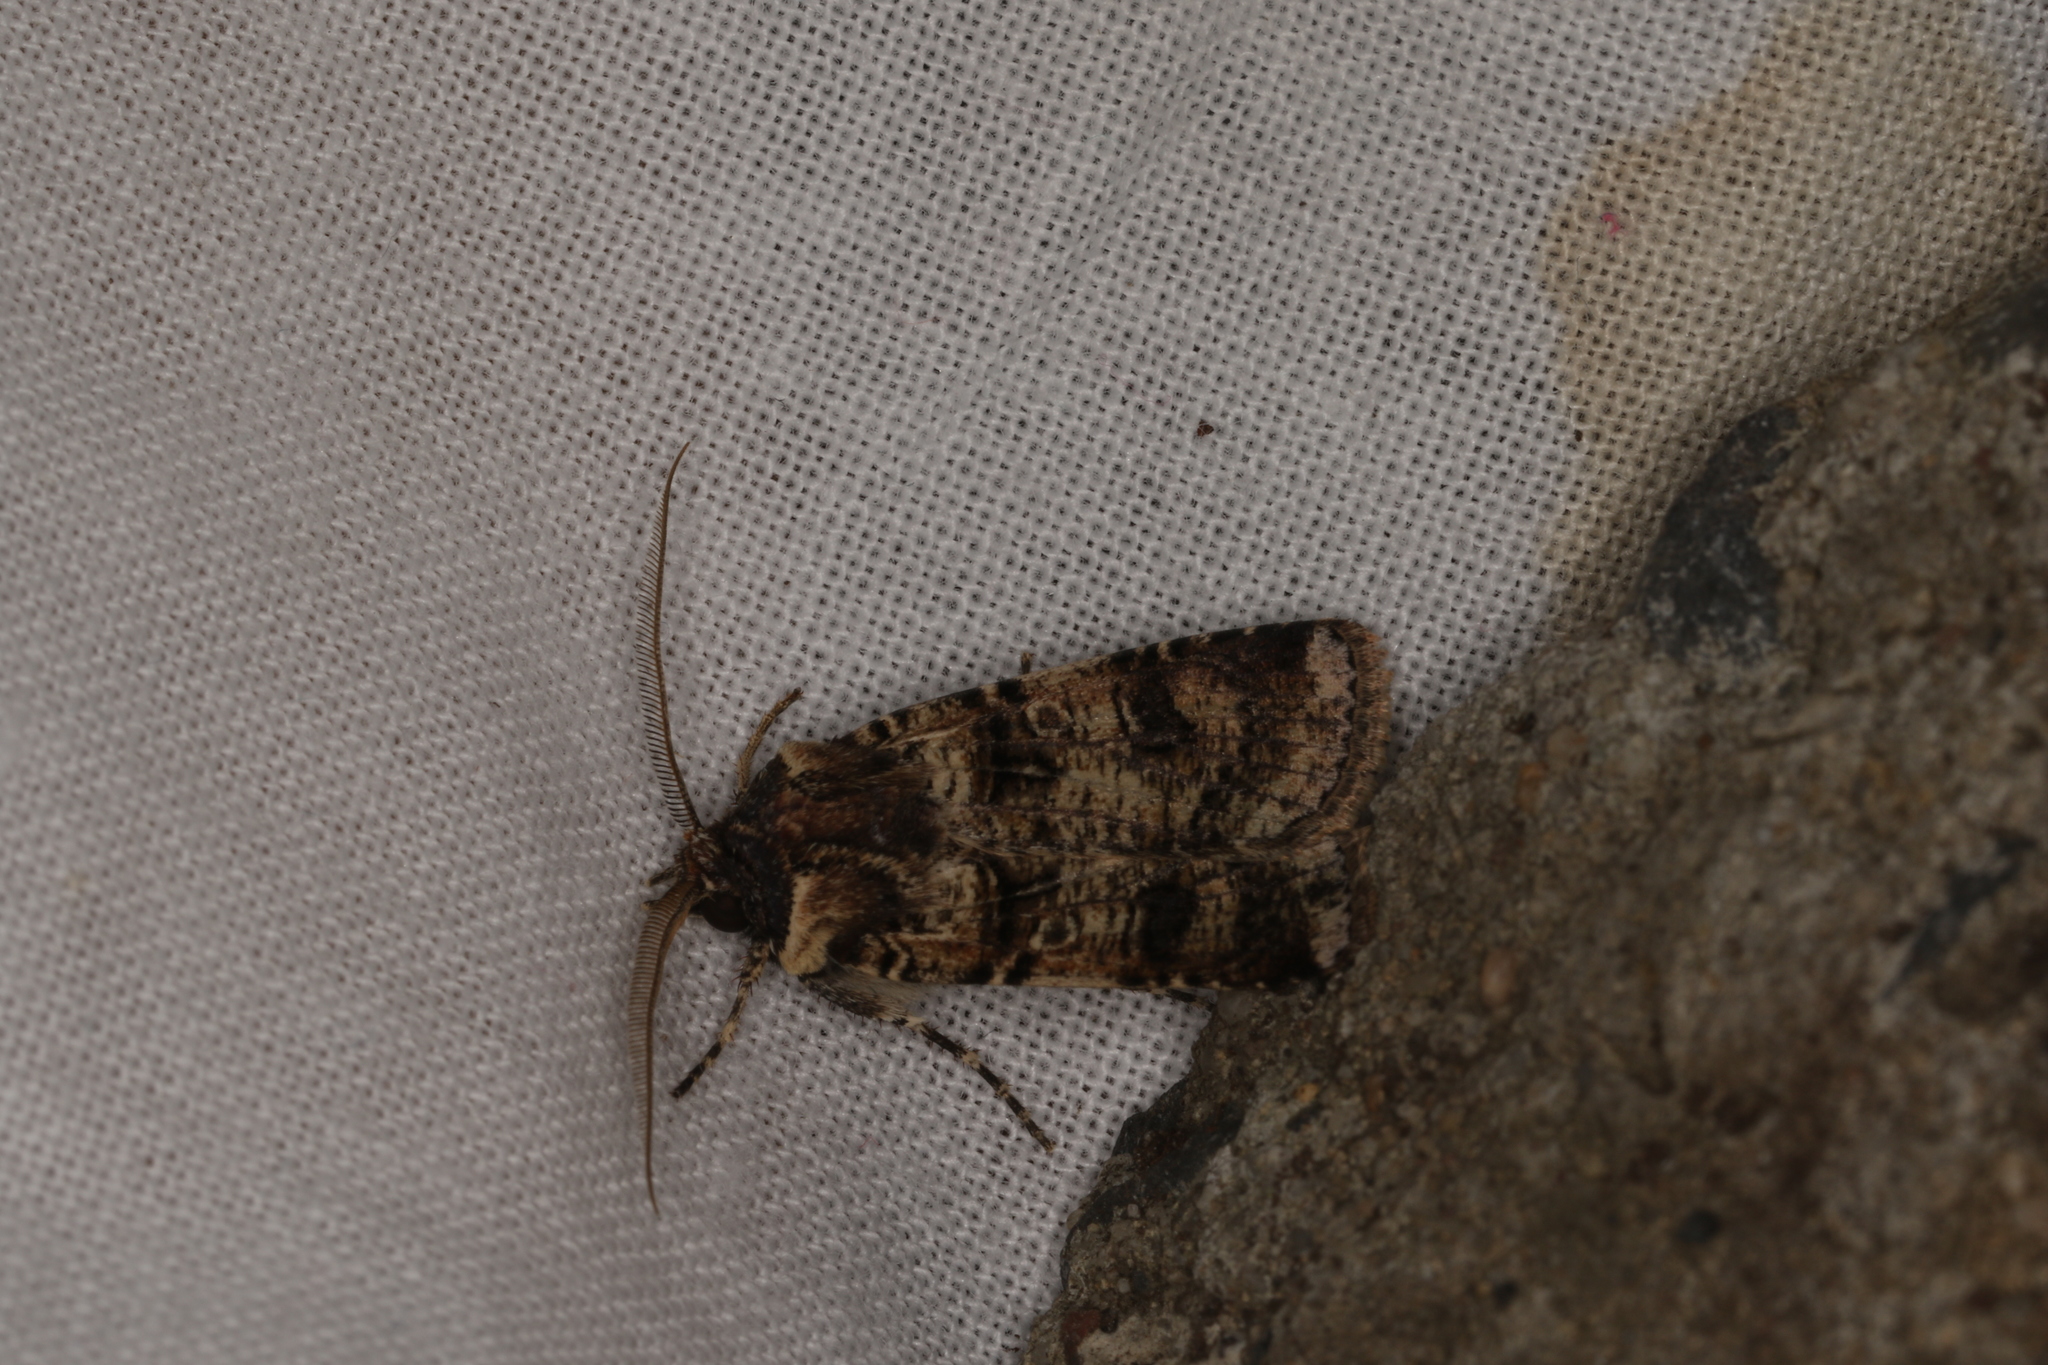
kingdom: Animalia
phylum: Arthropoda
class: Insecta
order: Lepidoptera
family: Noctuidae
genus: Agrotis
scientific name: Agrotis porphyricollis
